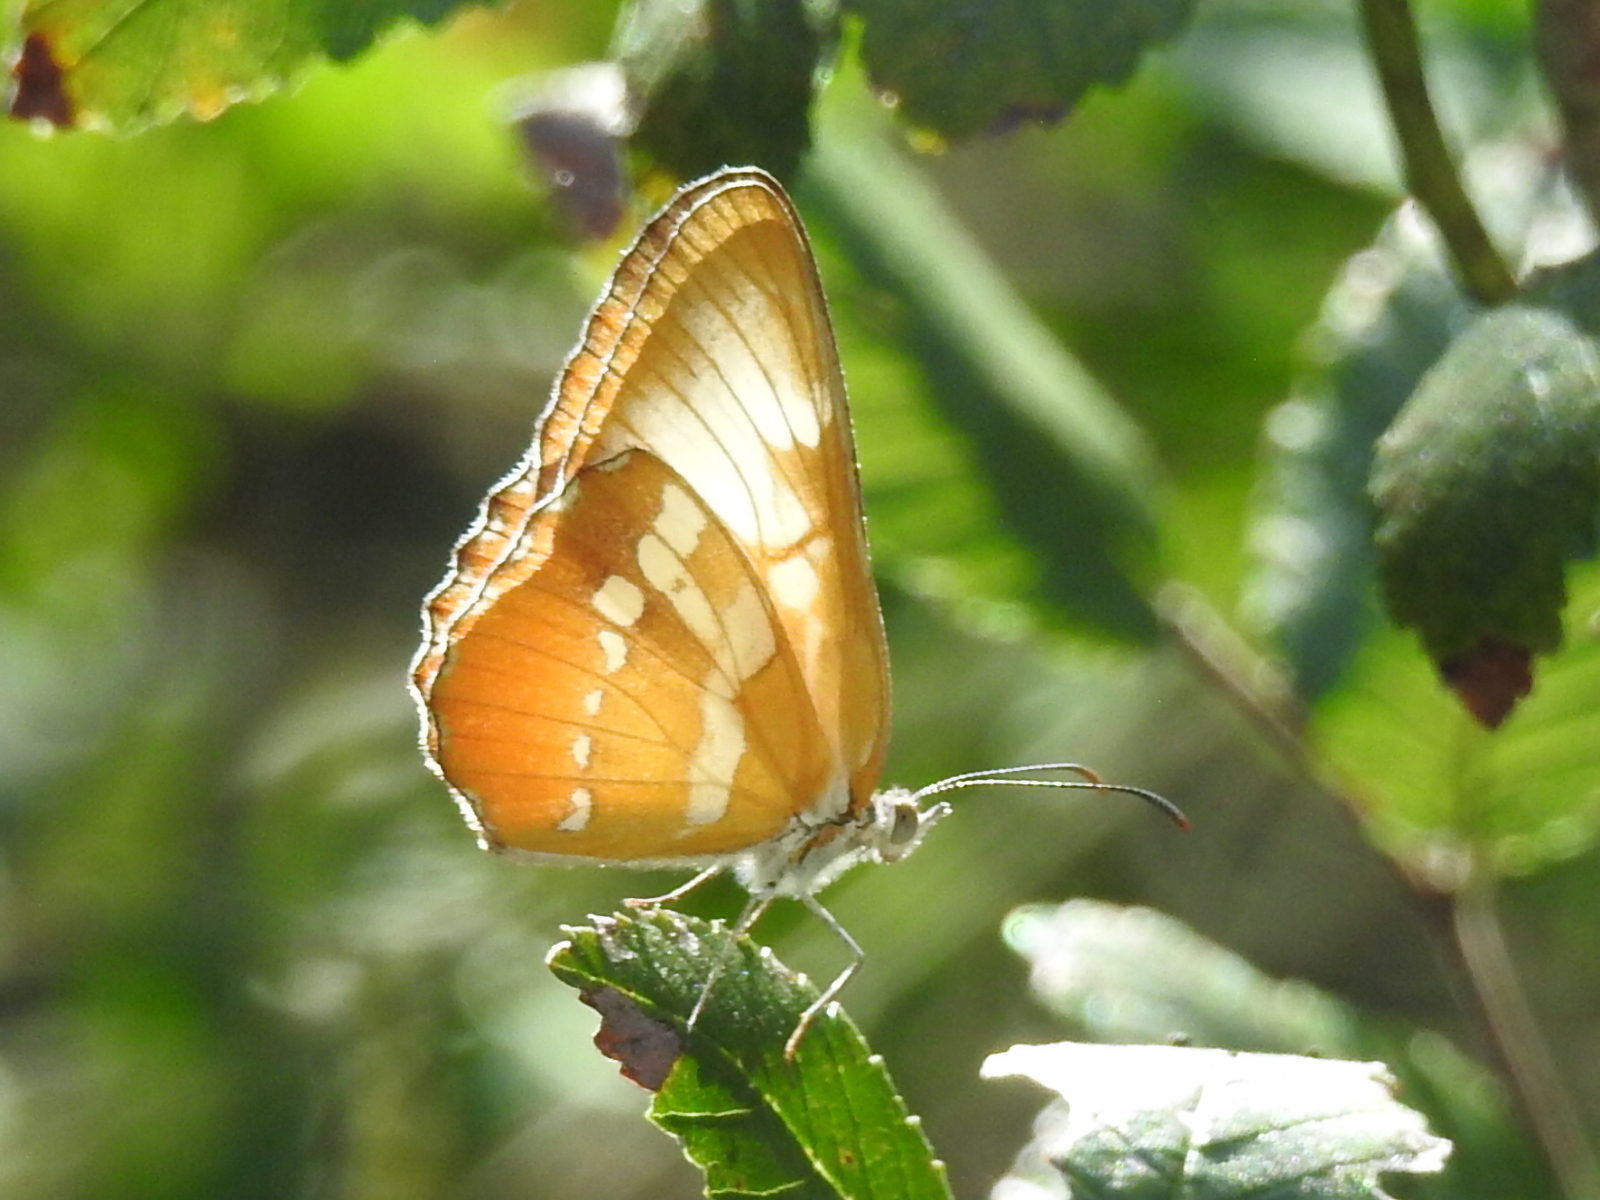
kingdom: Animalia
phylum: Arthropoda
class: Insecta
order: Lepidoptera
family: Nymphalidae
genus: Mestra
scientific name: Mestra amymone
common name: Common mestra
